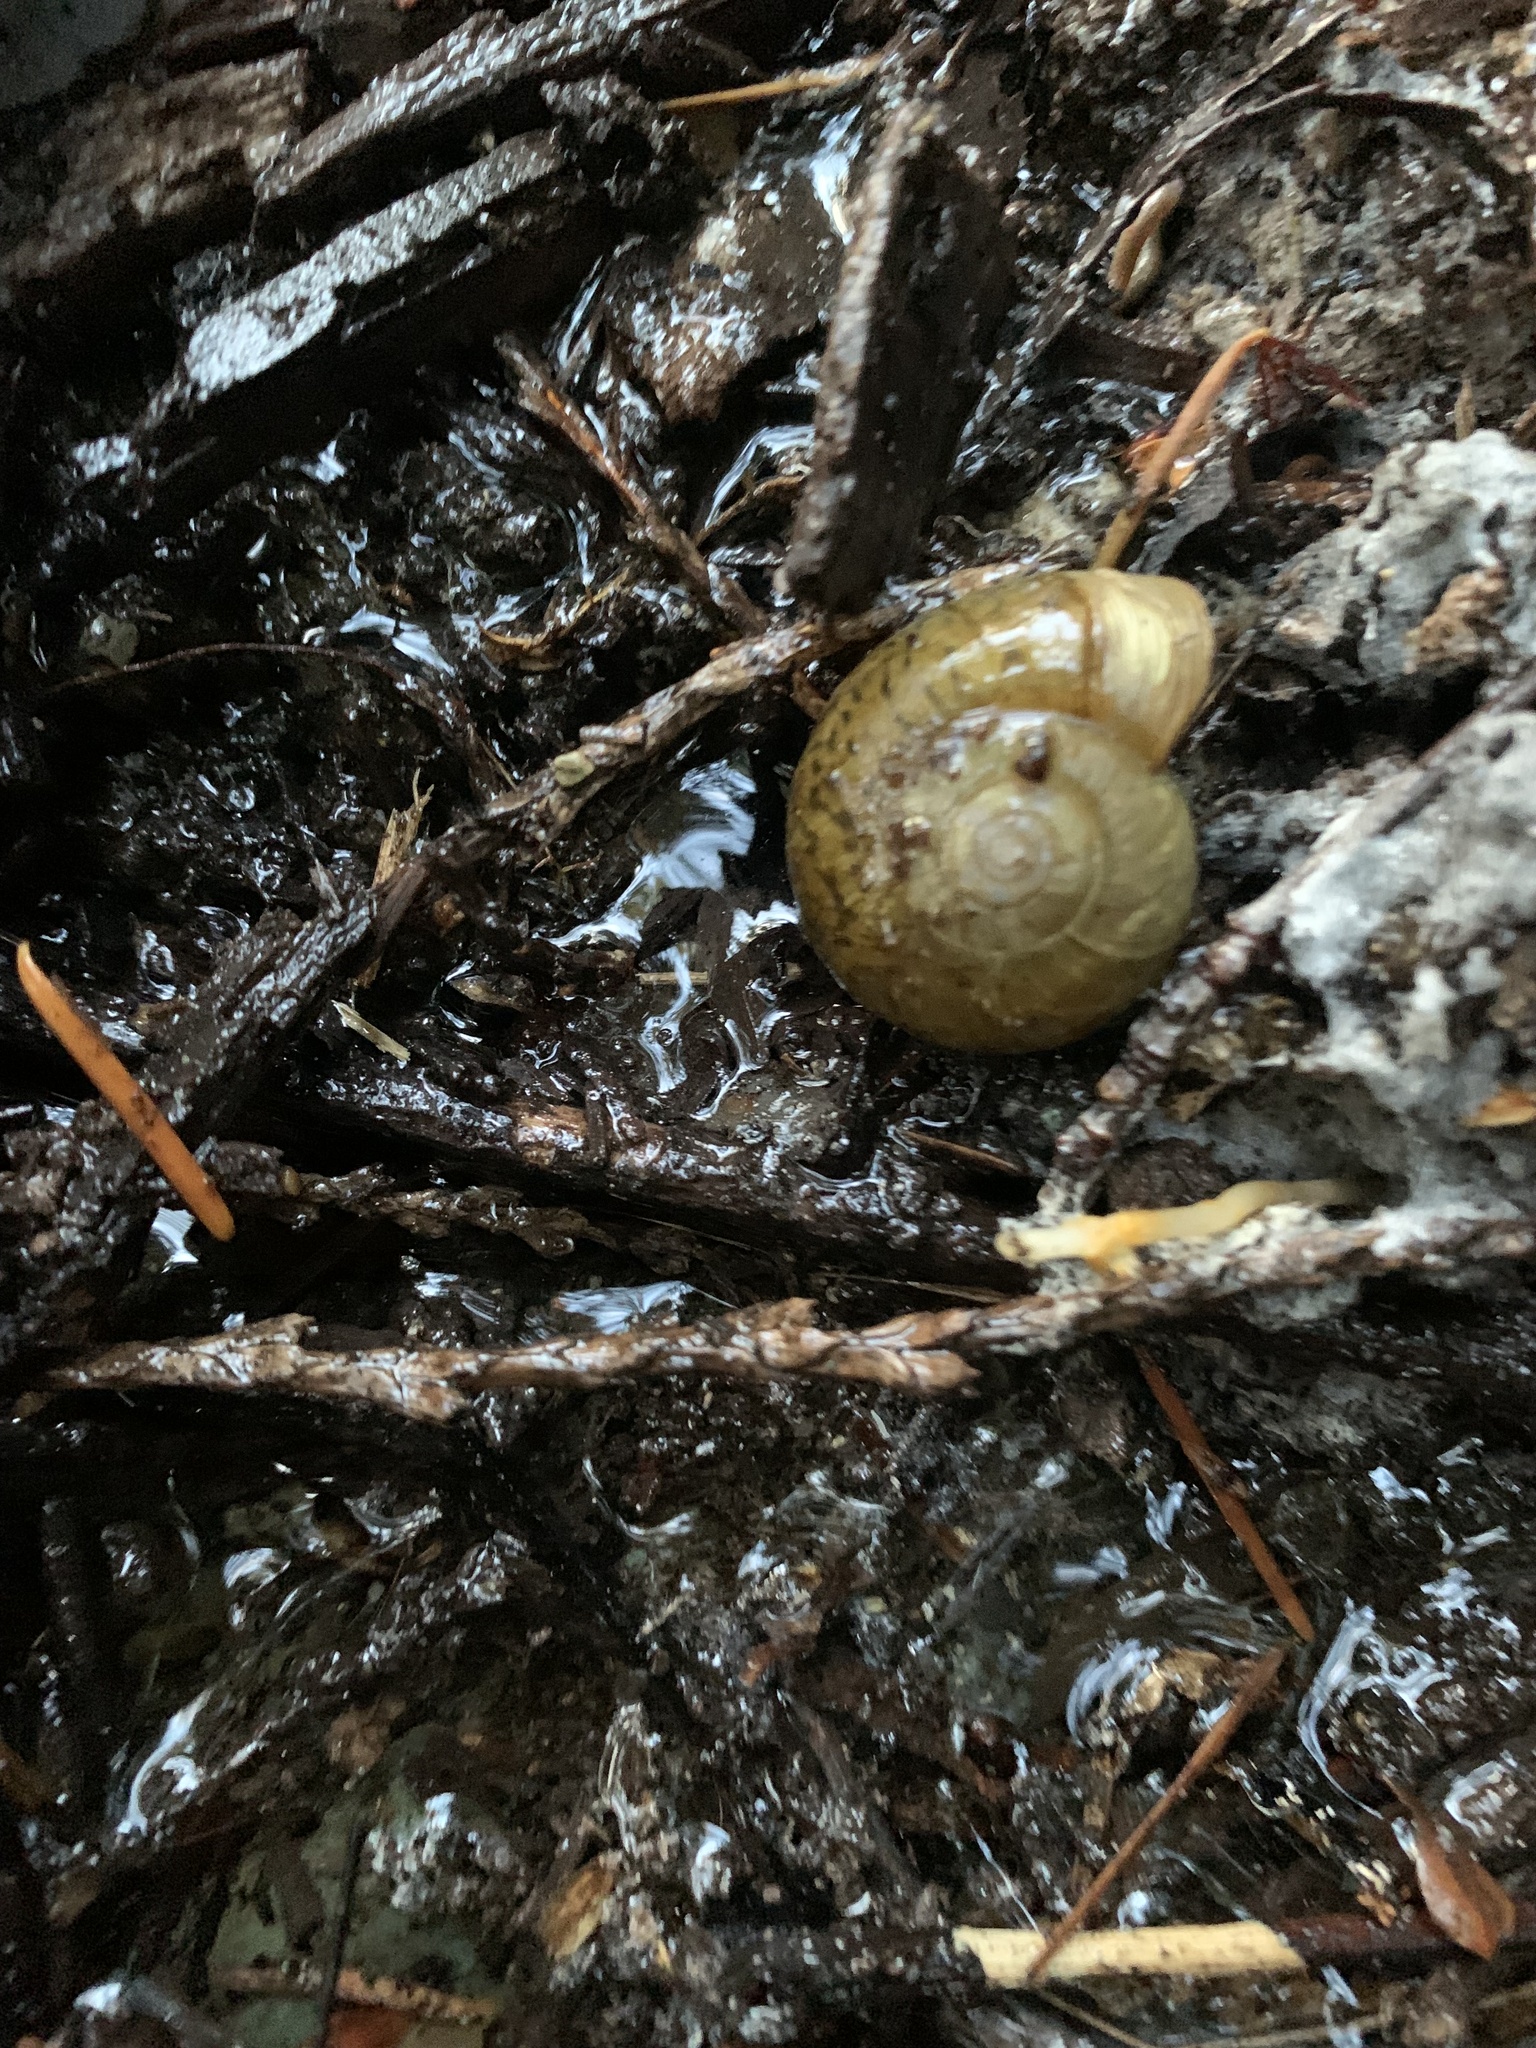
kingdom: Animalia
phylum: Mollusca
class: Gastropoda
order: Stylommatophora
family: Haplotrematidae
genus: Haplotrema
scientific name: Haplotrema vancouverense
